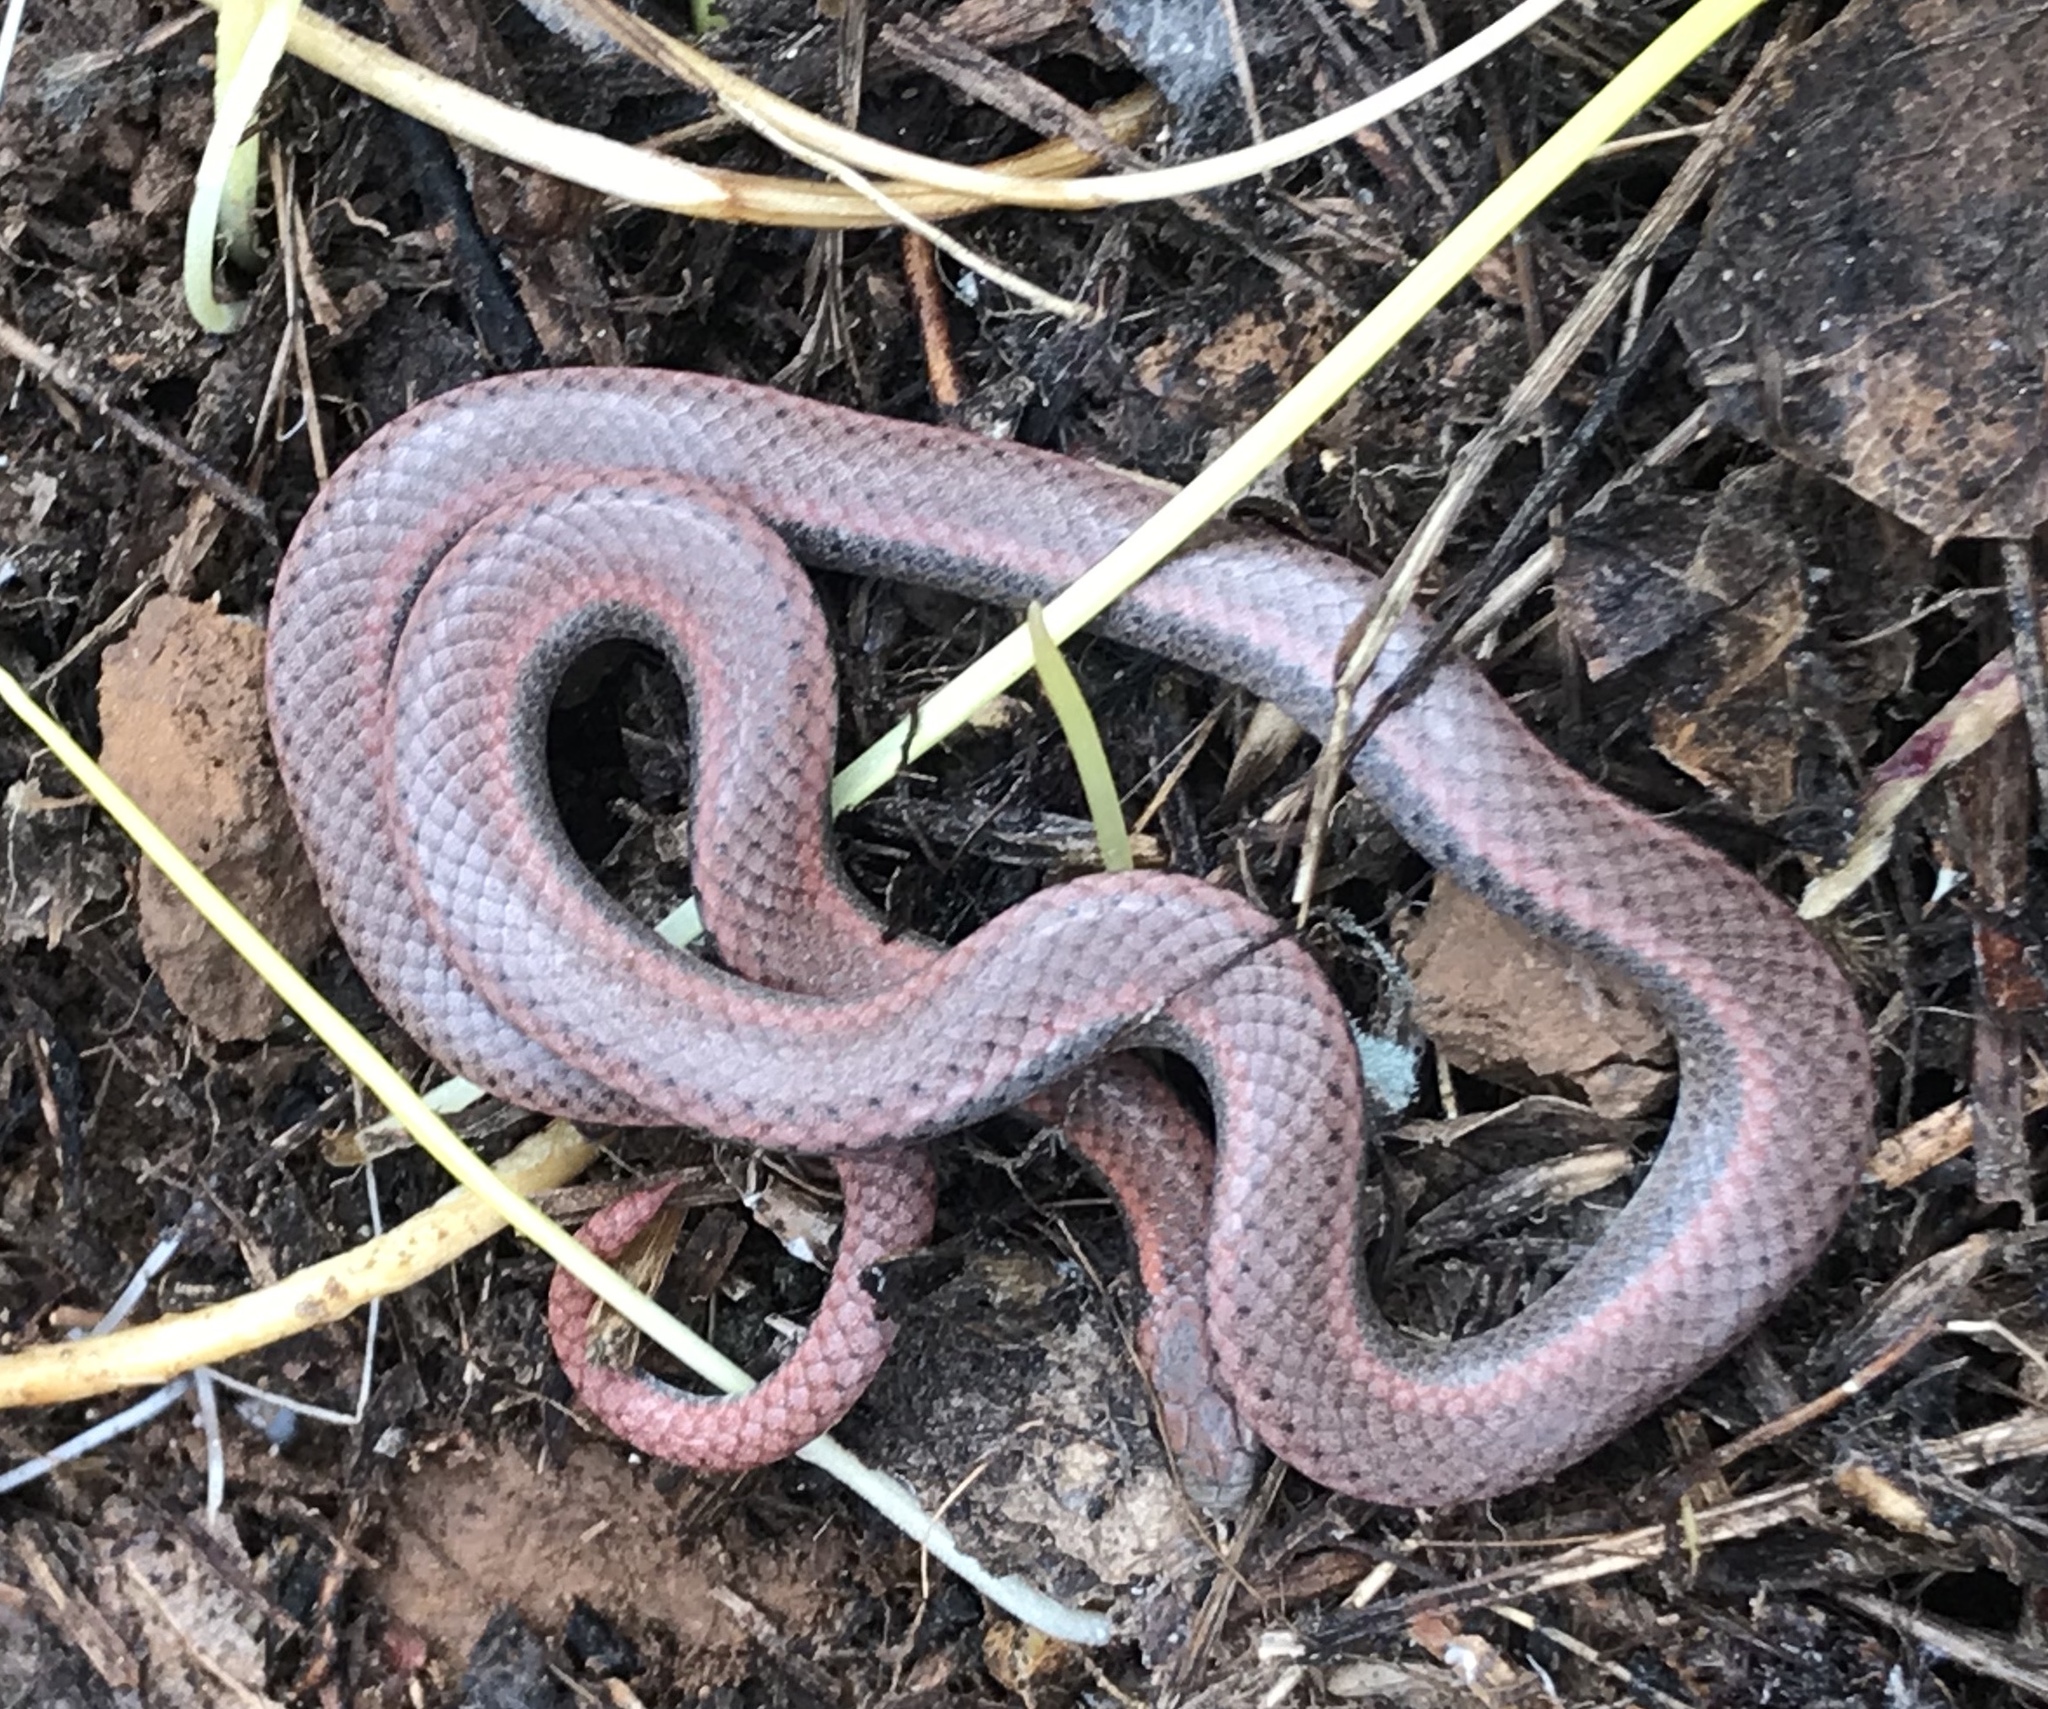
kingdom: Animalia
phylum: Chordata
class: Squamata
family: Colubridae
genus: Contia
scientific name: Contia tenuis
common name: Sharptail snake
